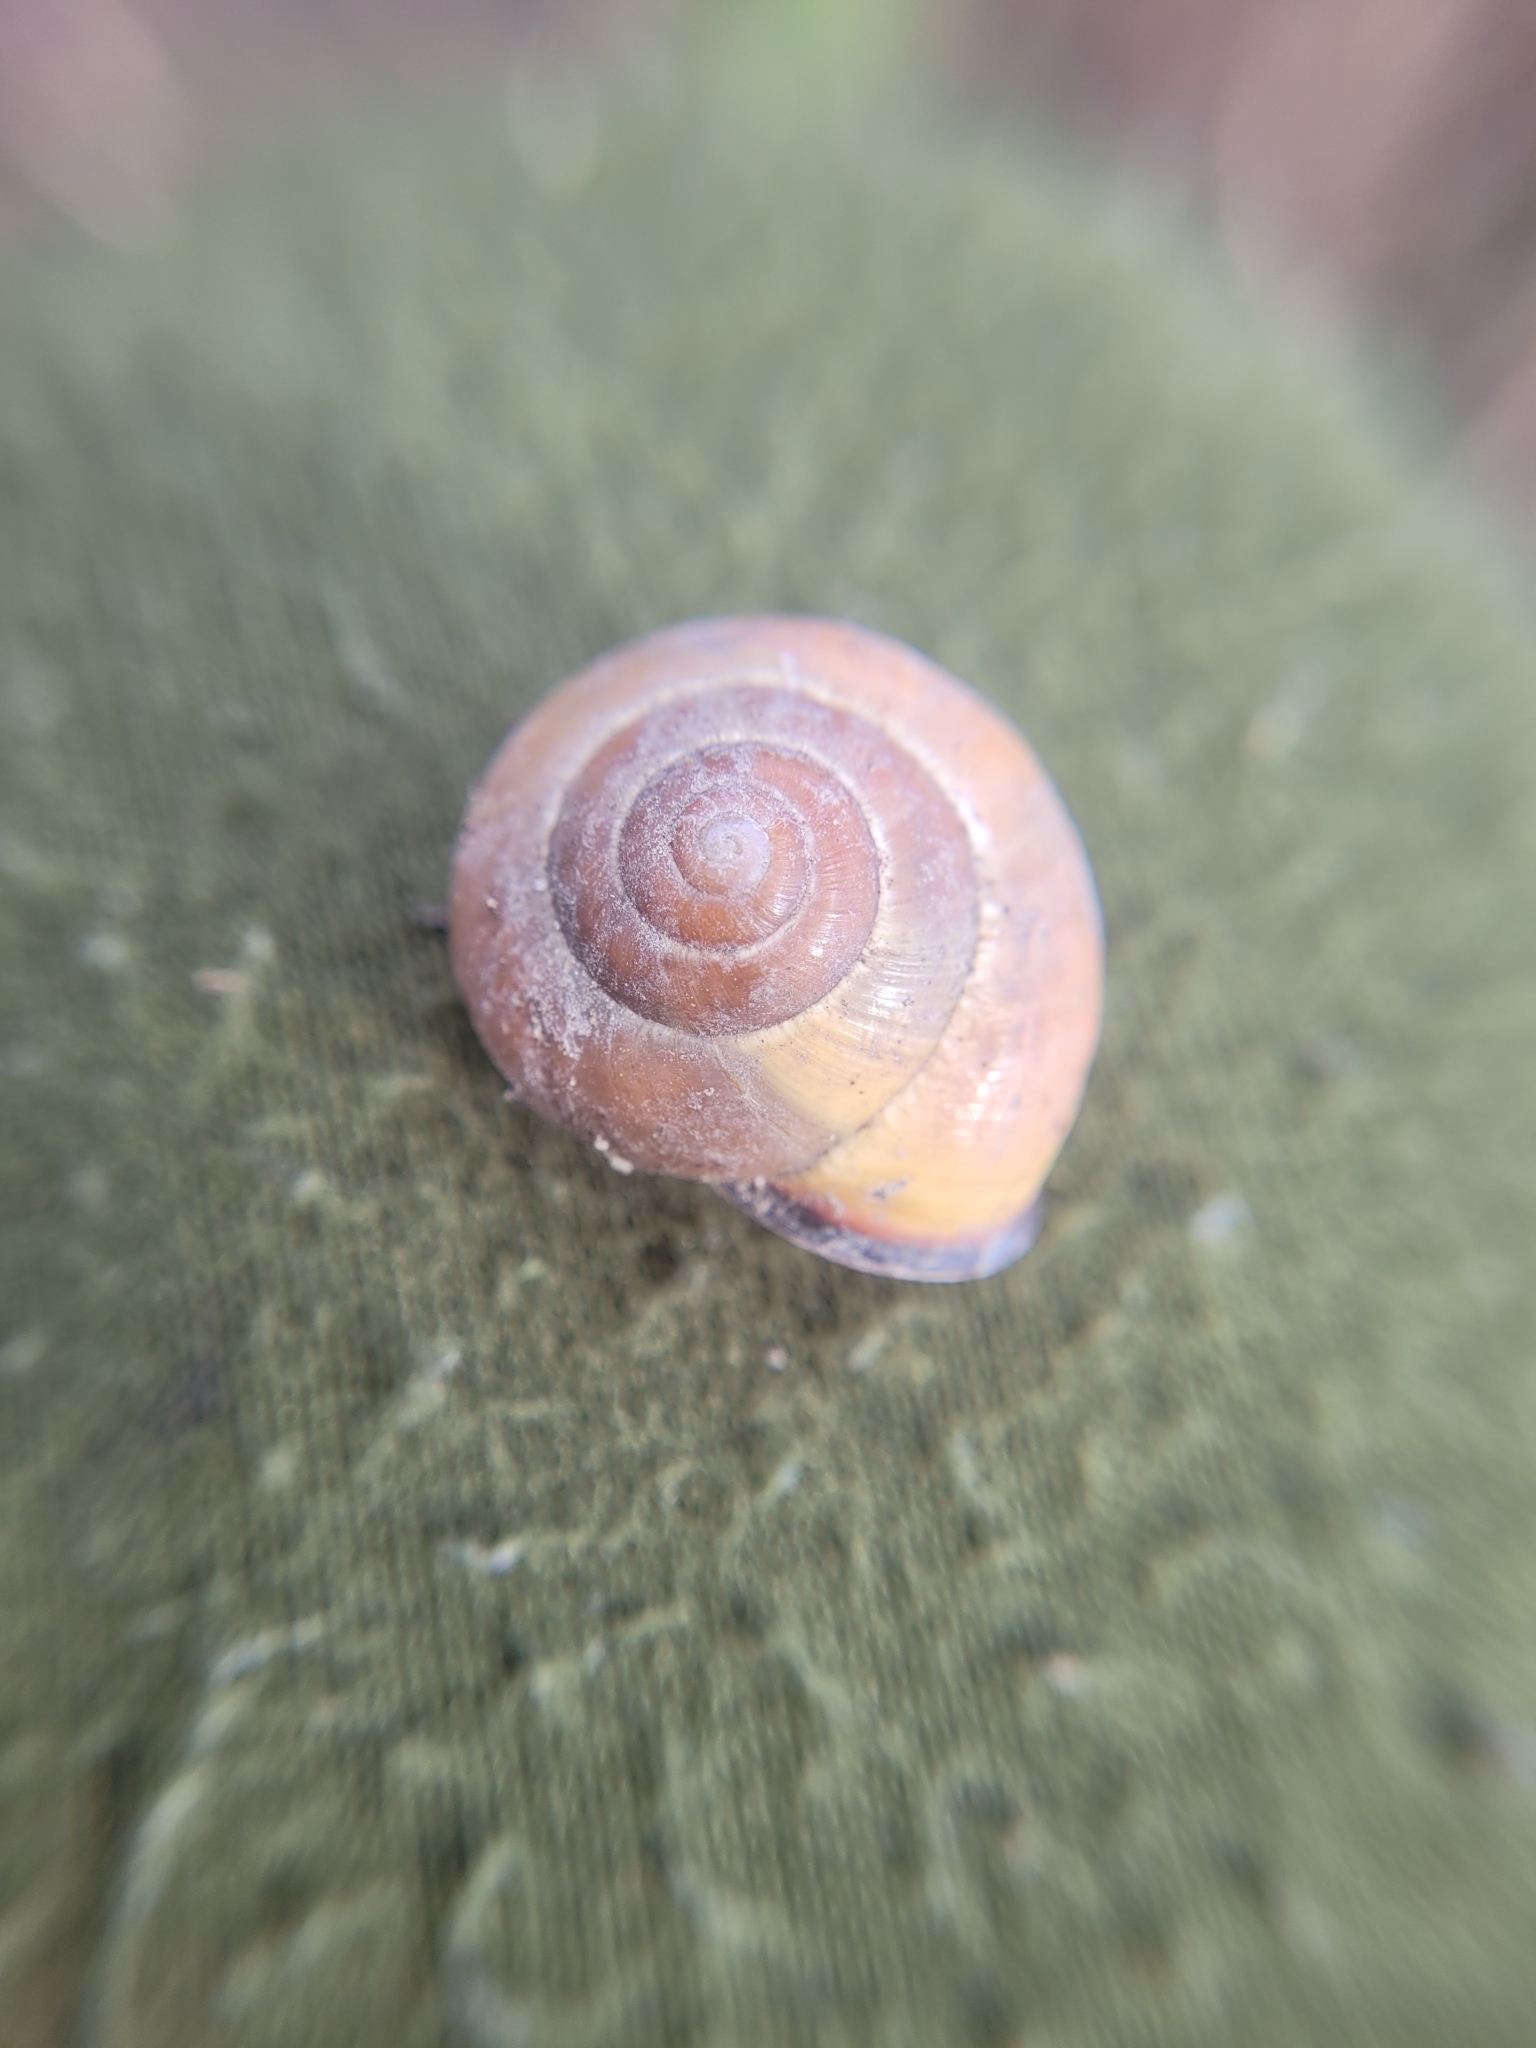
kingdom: Animalia
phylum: Mollusca
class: Gastropoda
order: Stylommatophora
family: Helicidae
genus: Cepaea
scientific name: Cepaea nemoralis
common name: Grovesnail
